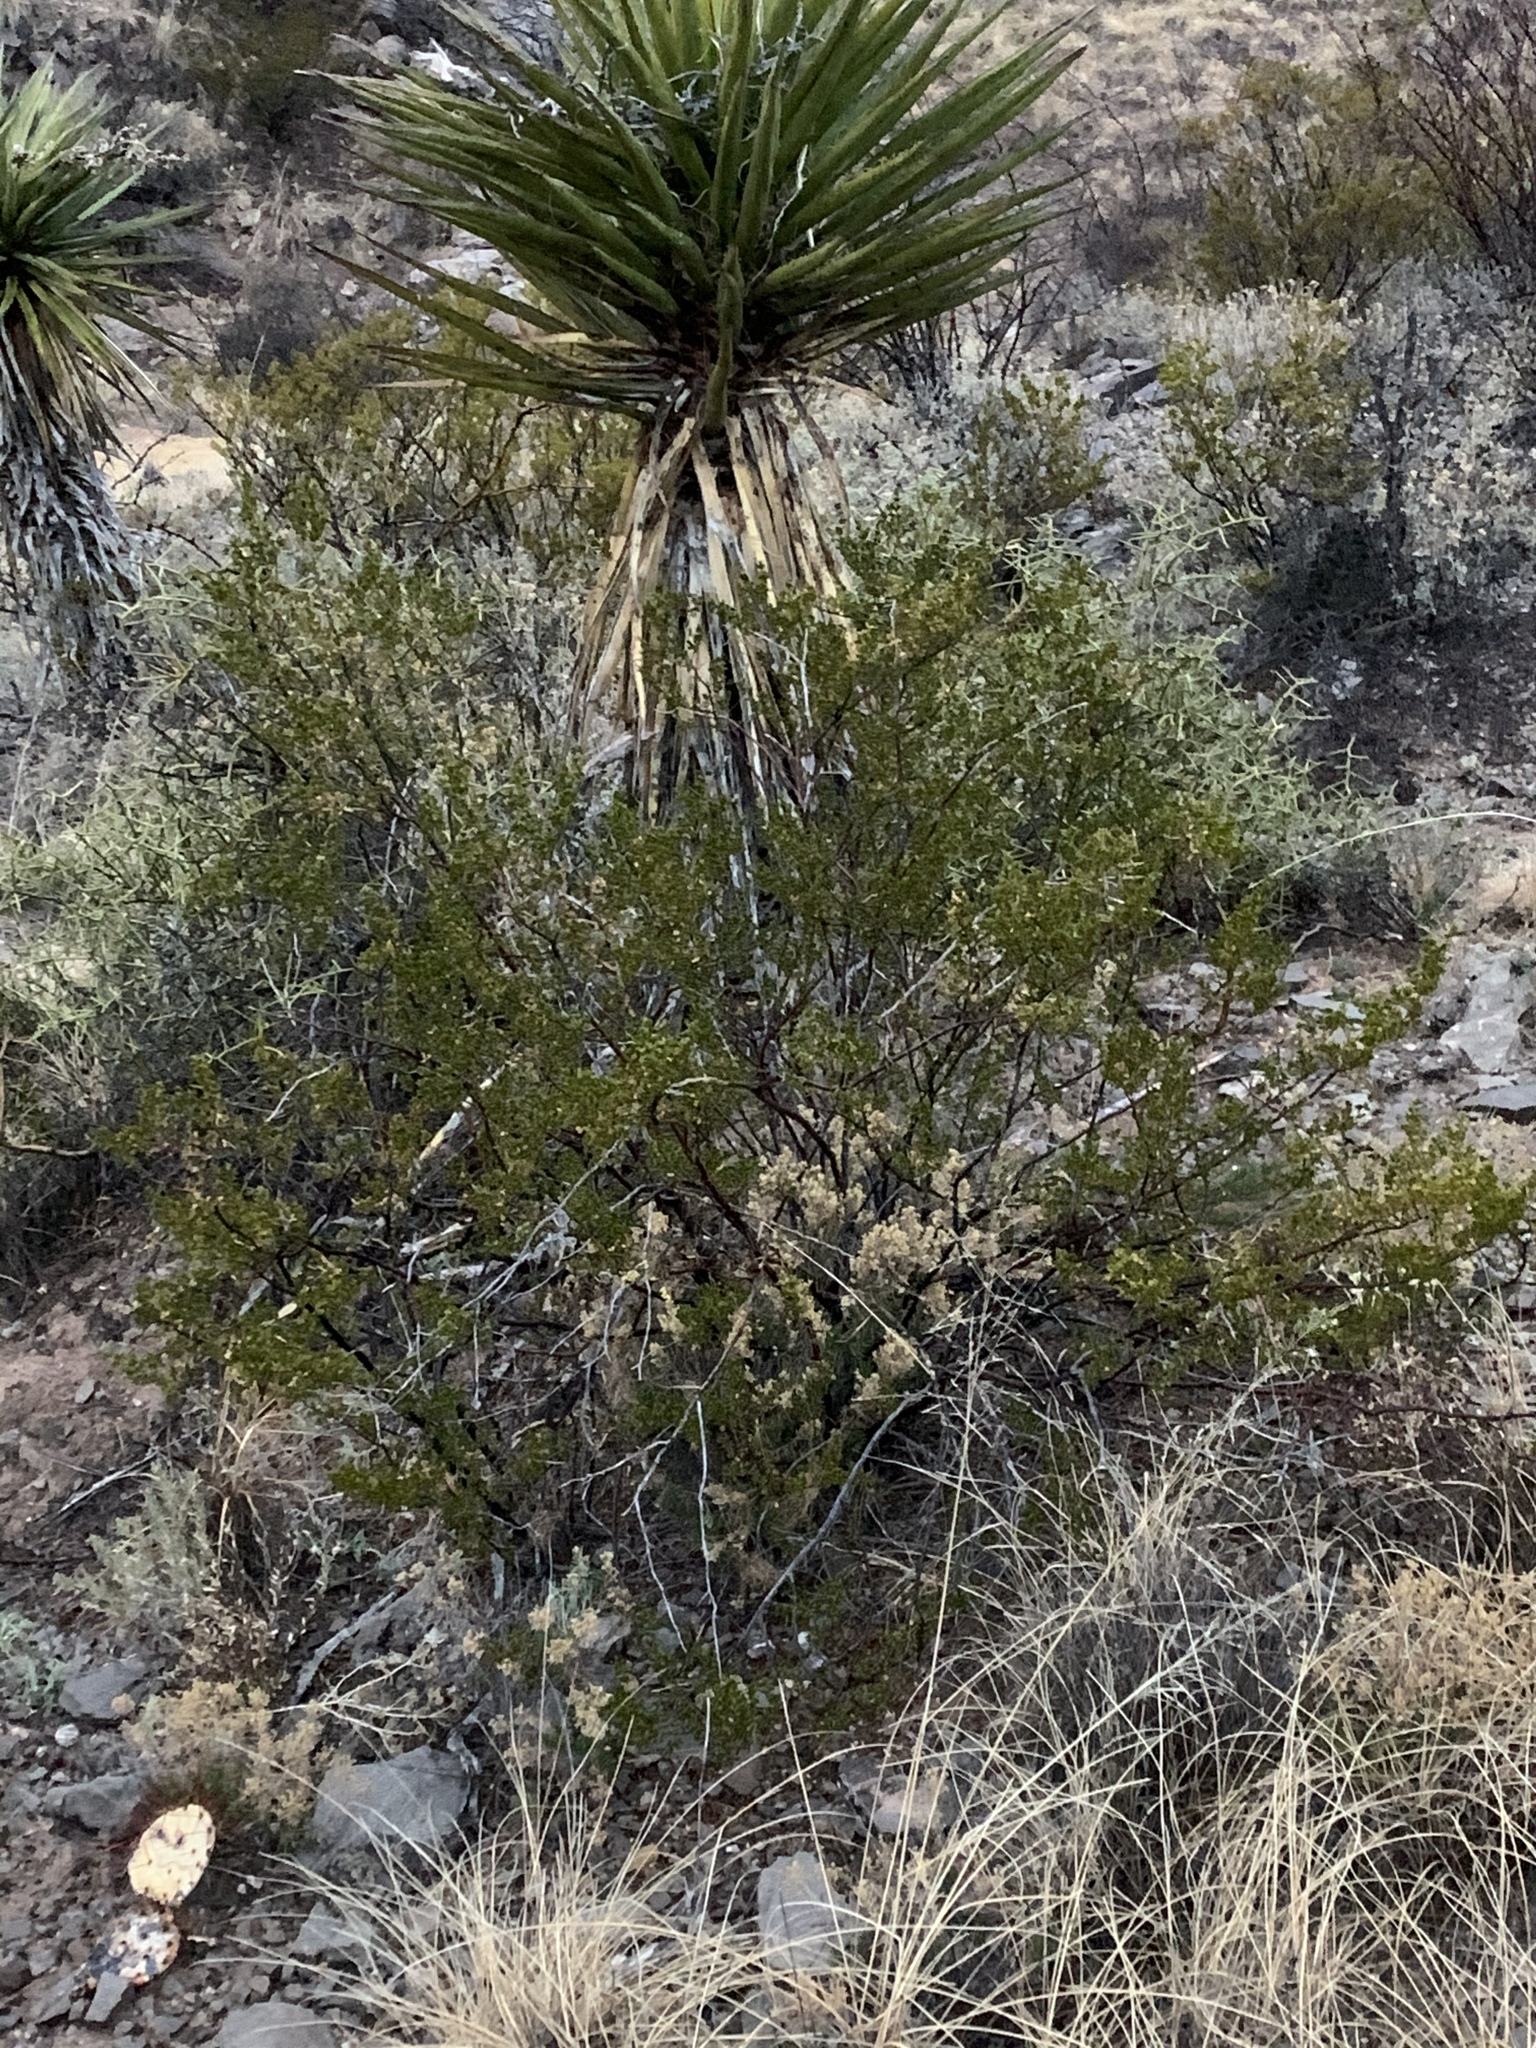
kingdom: Plantae
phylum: Tracheophyta
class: Magnoliopsida
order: Zygophyllales
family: Zygophyllaceae
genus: Larrea
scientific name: Larrea tridentata
